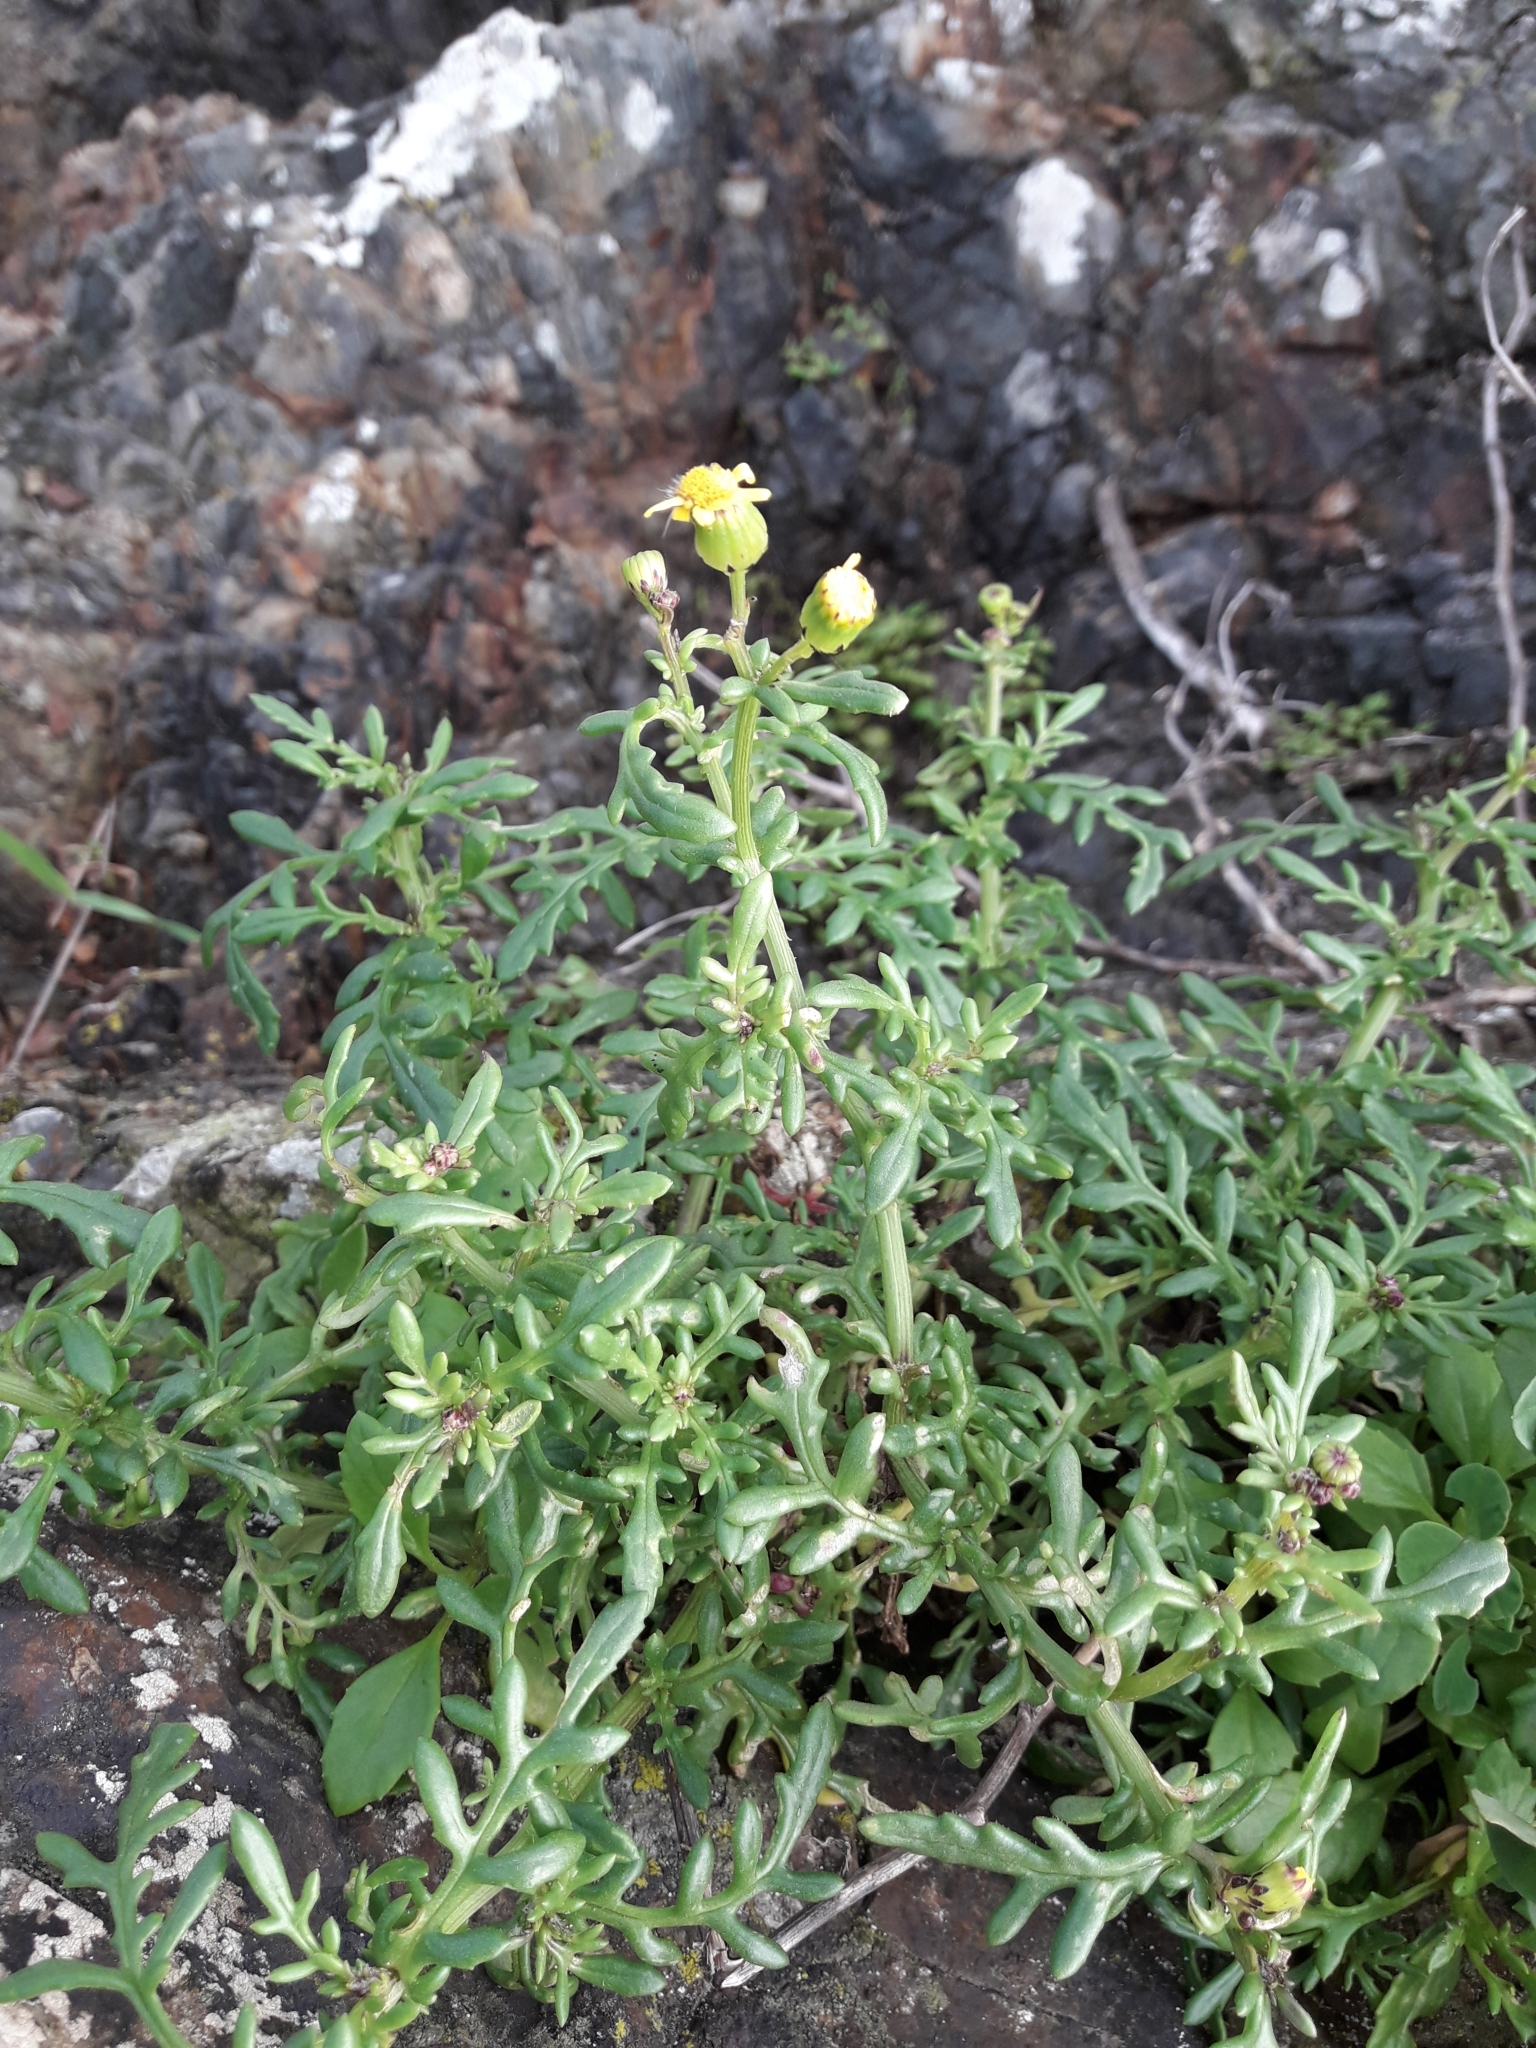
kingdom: Plantae
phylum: Tracheophyta
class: Magnoliopsida
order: Asterales
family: Asteraceae
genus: Senecio
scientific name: Senecio lautus
